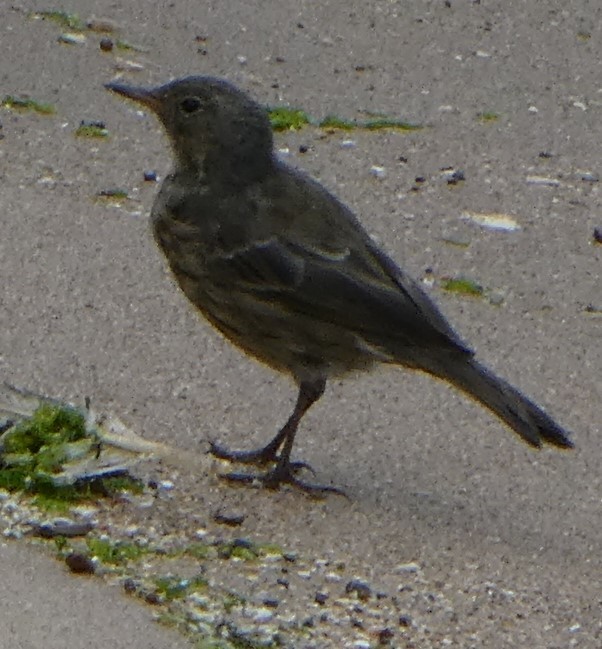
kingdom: Animalia
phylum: Chordata
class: Aves
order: Passeriformes
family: Motacillidae
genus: Anthus
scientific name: Anthus petrosus
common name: Eurasian rock pipit
